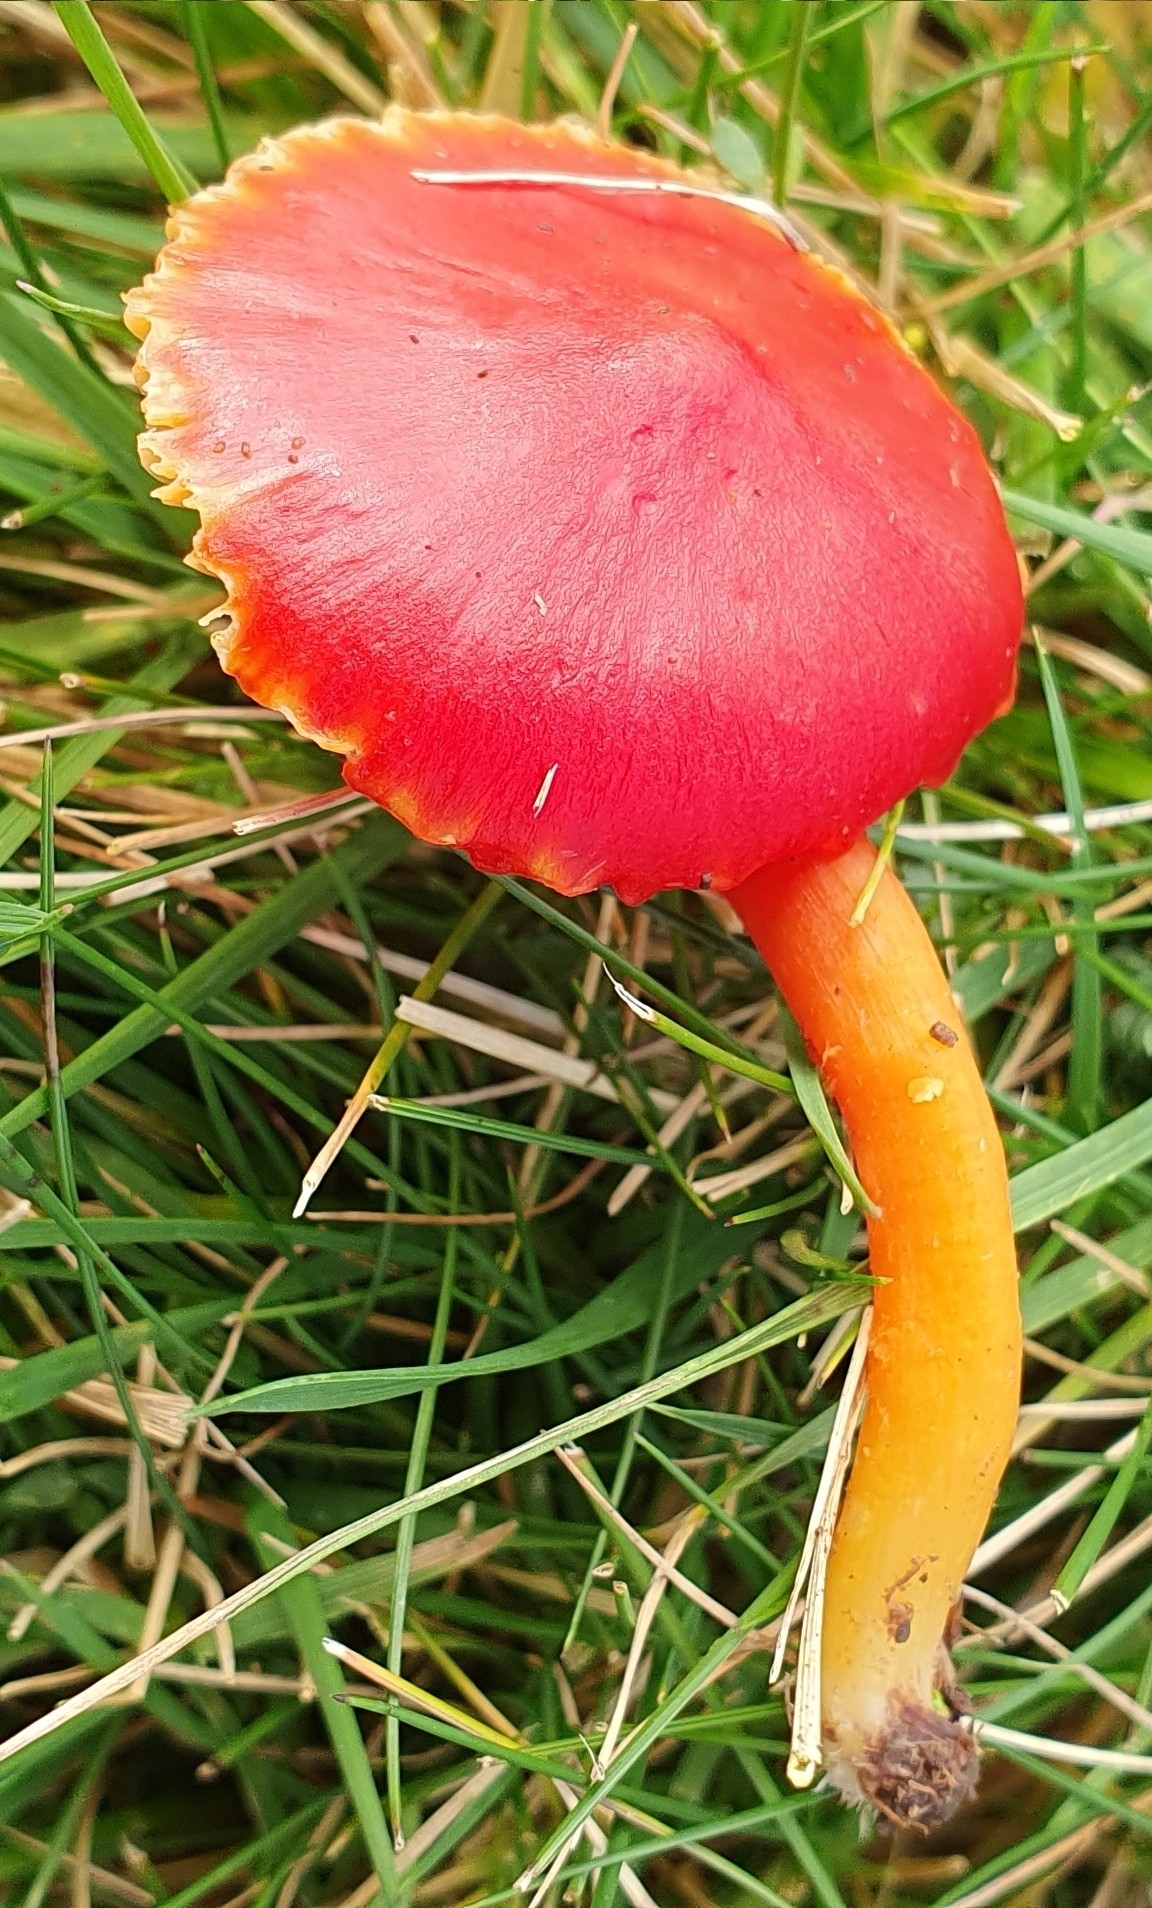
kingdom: Fungi
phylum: Basidiomycota
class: Agaricomycetes
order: Agaricales
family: Hygrophoraceae
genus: Hygrocybe
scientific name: Hygrocybe coccinea
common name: Scarlet hood
